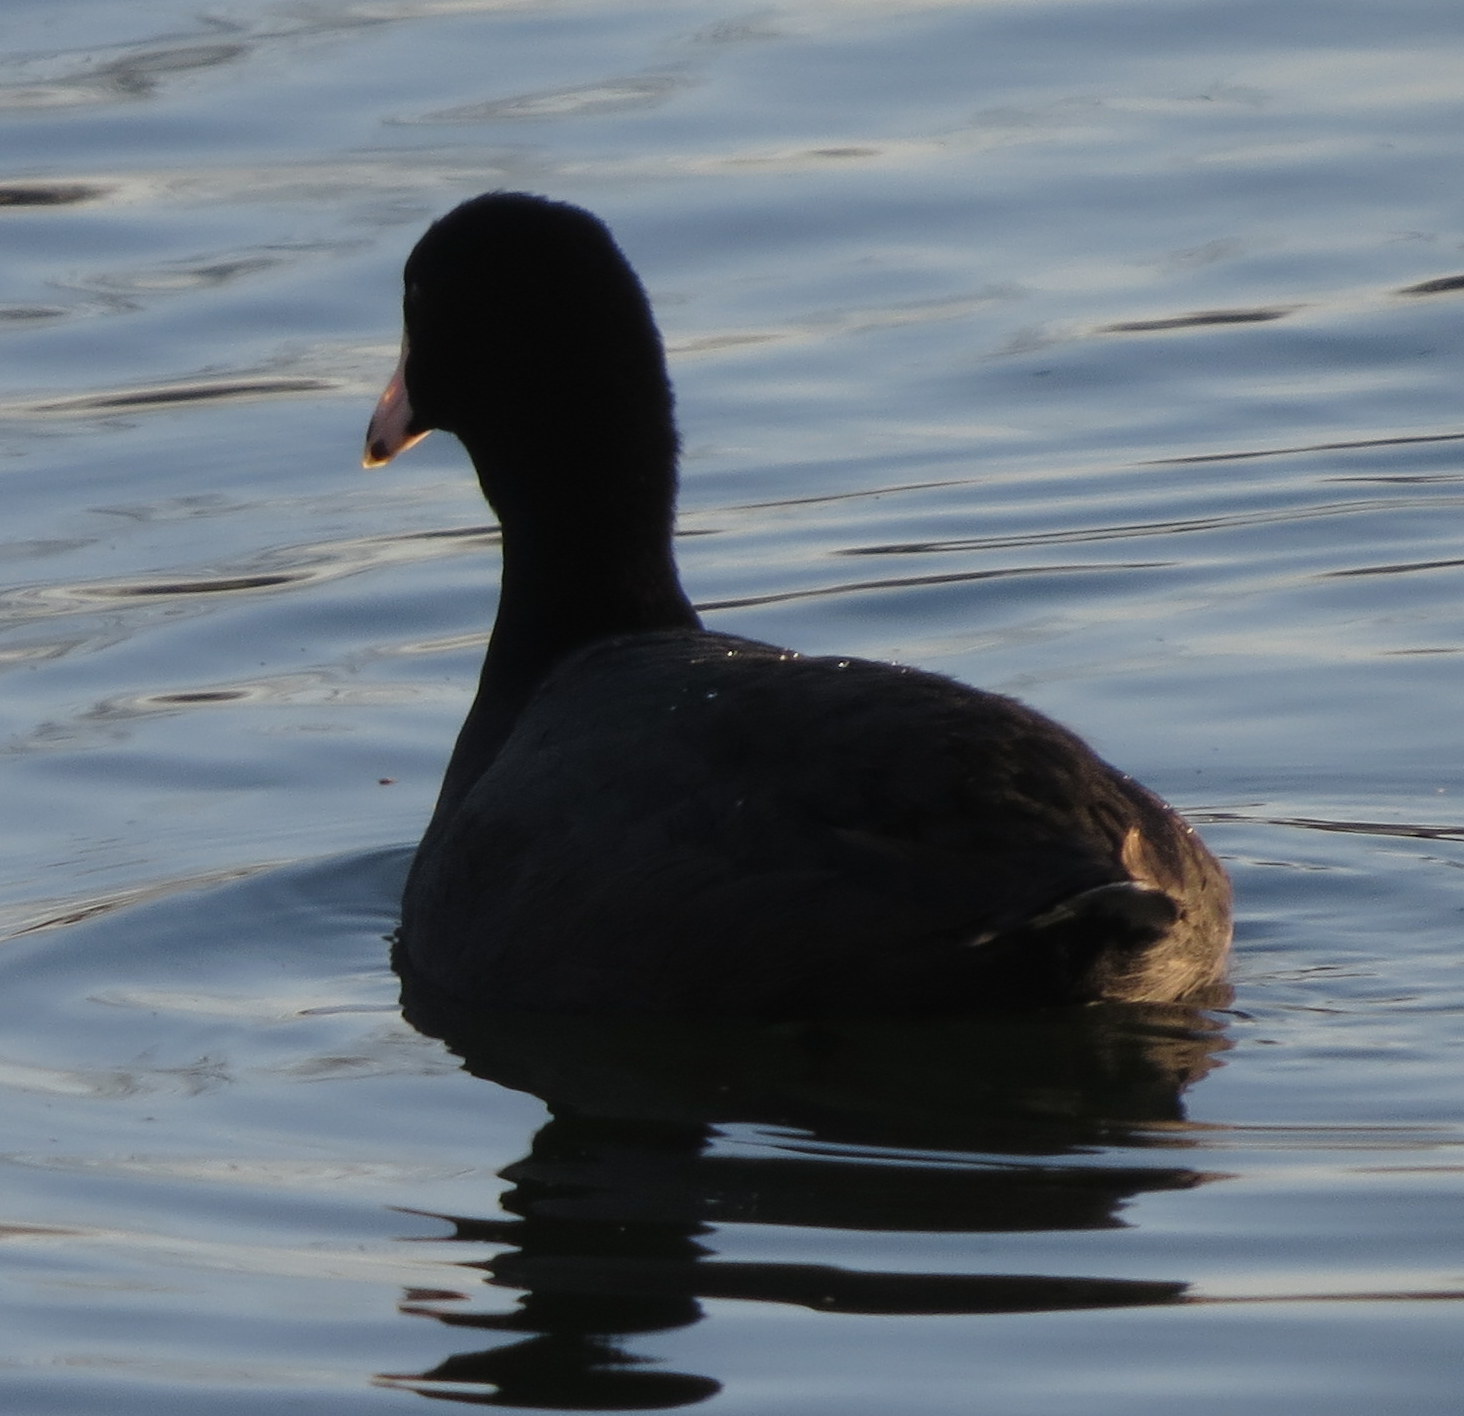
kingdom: Animalia
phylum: Chordata
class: Aves
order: Gruiformes
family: Rallidae
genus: Fulica
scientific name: Fulica americana
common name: American coot
